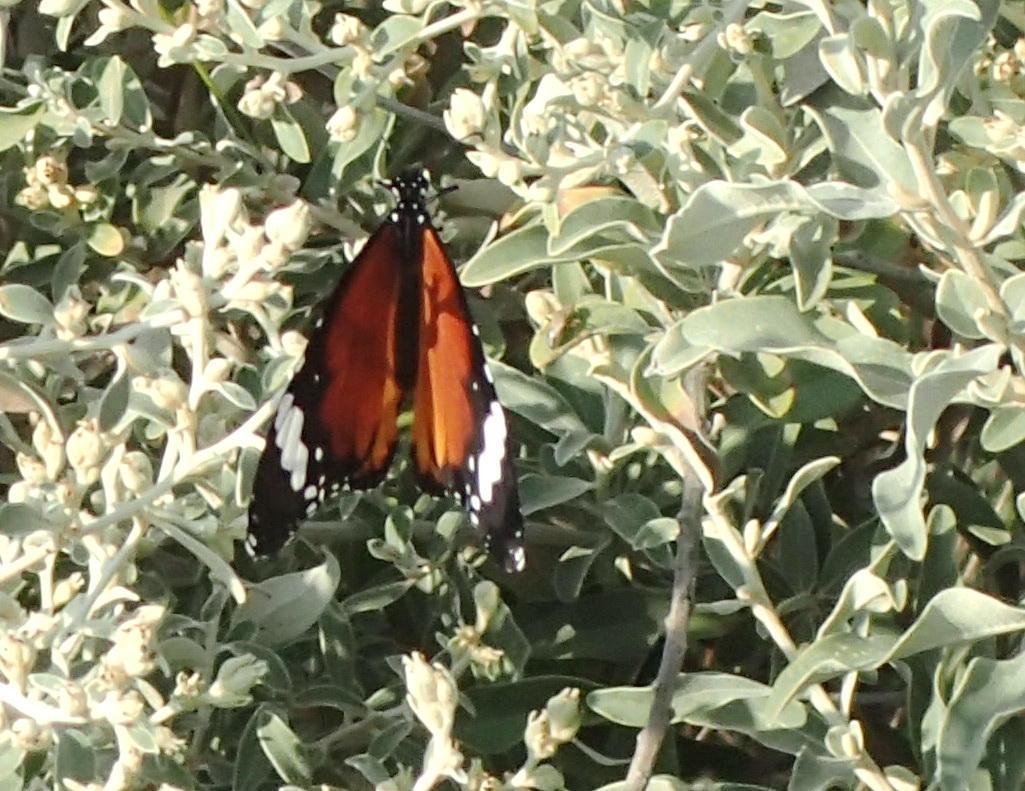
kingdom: Animalia
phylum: Arthropoda
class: Insecta
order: Lepidoptera
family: Nymphalidae
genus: Danaus
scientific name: Danaus chrysippus
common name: Plain tiger
